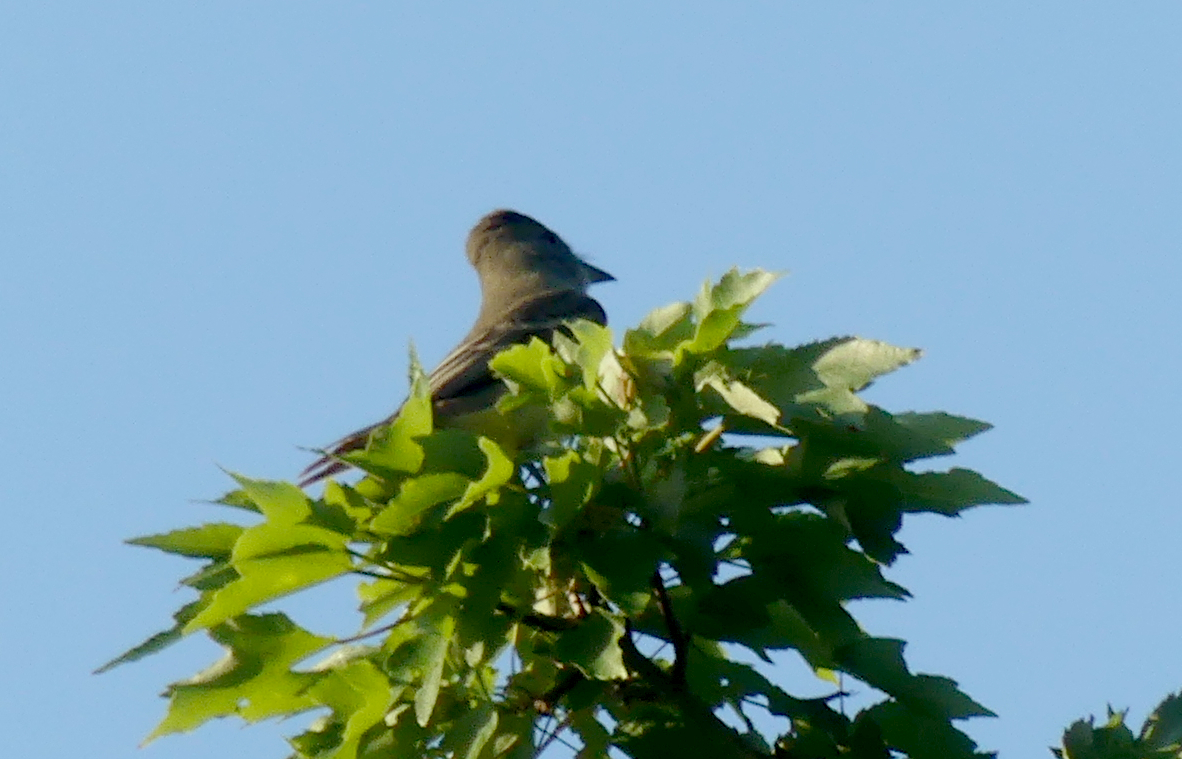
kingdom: Animalia
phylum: Chordata
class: Aves
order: Passeriformes
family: Tyrannidae
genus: Myiarchus
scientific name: Myiarchus crinitus
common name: Great crested flycatcher
